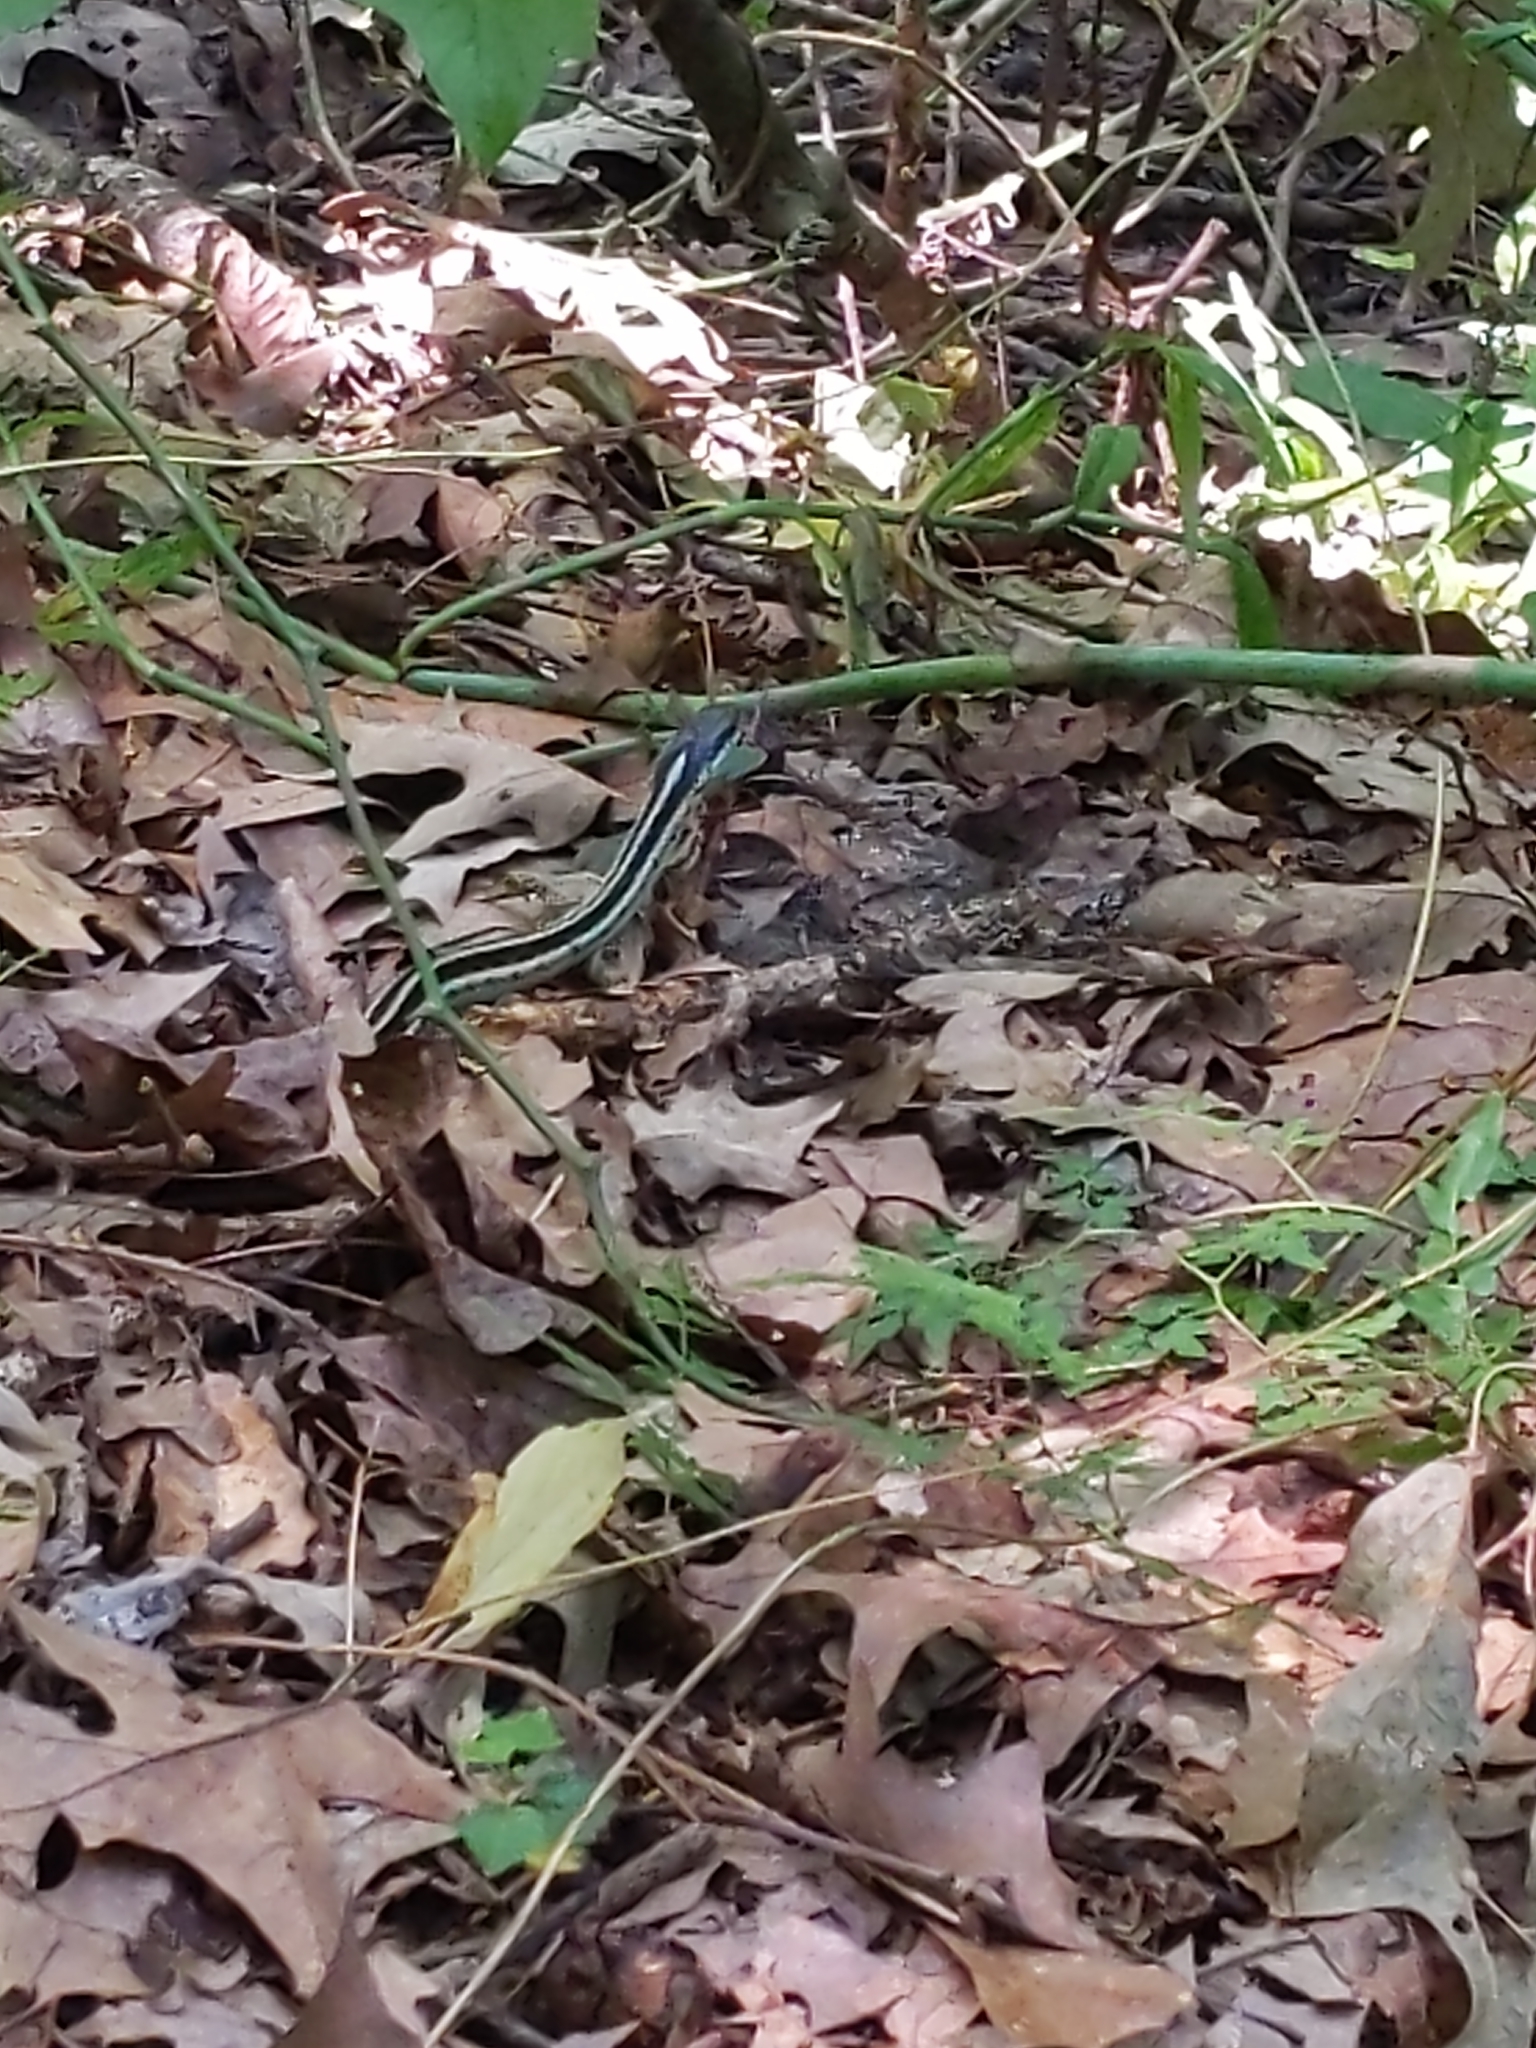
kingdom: Animalia
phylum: Chordata
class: Squamata
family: Colubridae
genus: Thamnophis
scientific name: Thamnophis proximus
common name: Western ribbon snake
